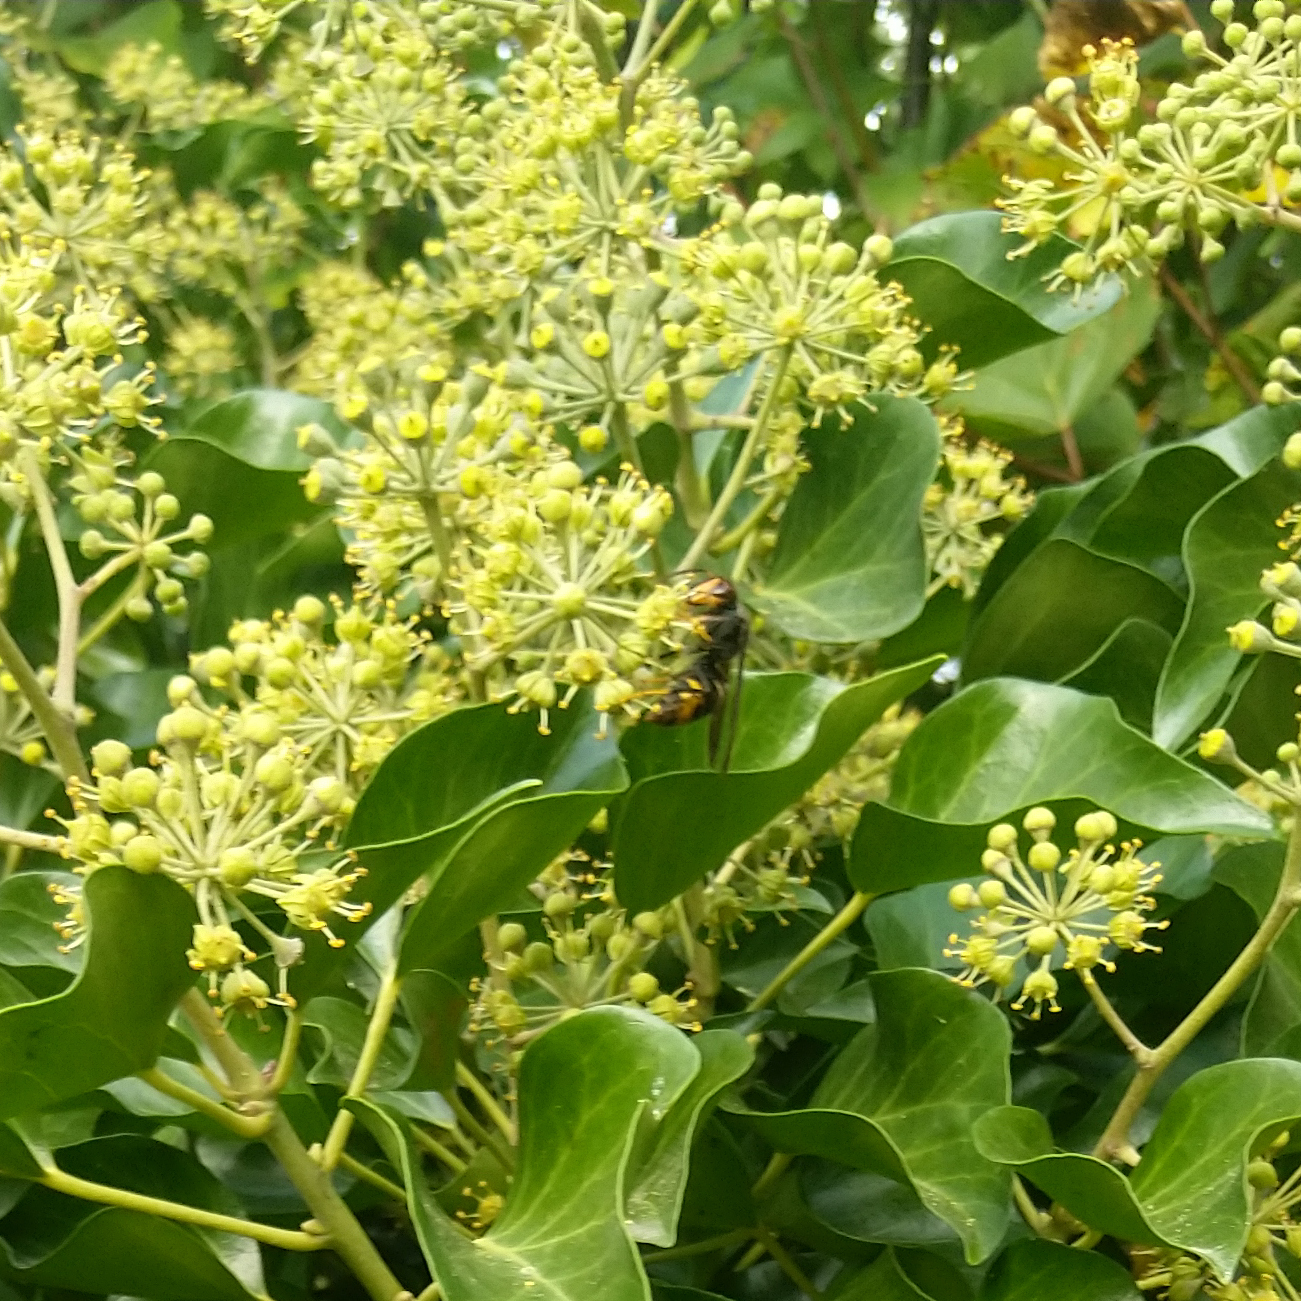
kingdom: Animalia
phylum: Arthropoda
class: Insecta
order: Hymenoptera
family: Vespidae
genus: Vespa
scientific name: Vespa velutina
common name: Asian hornet
